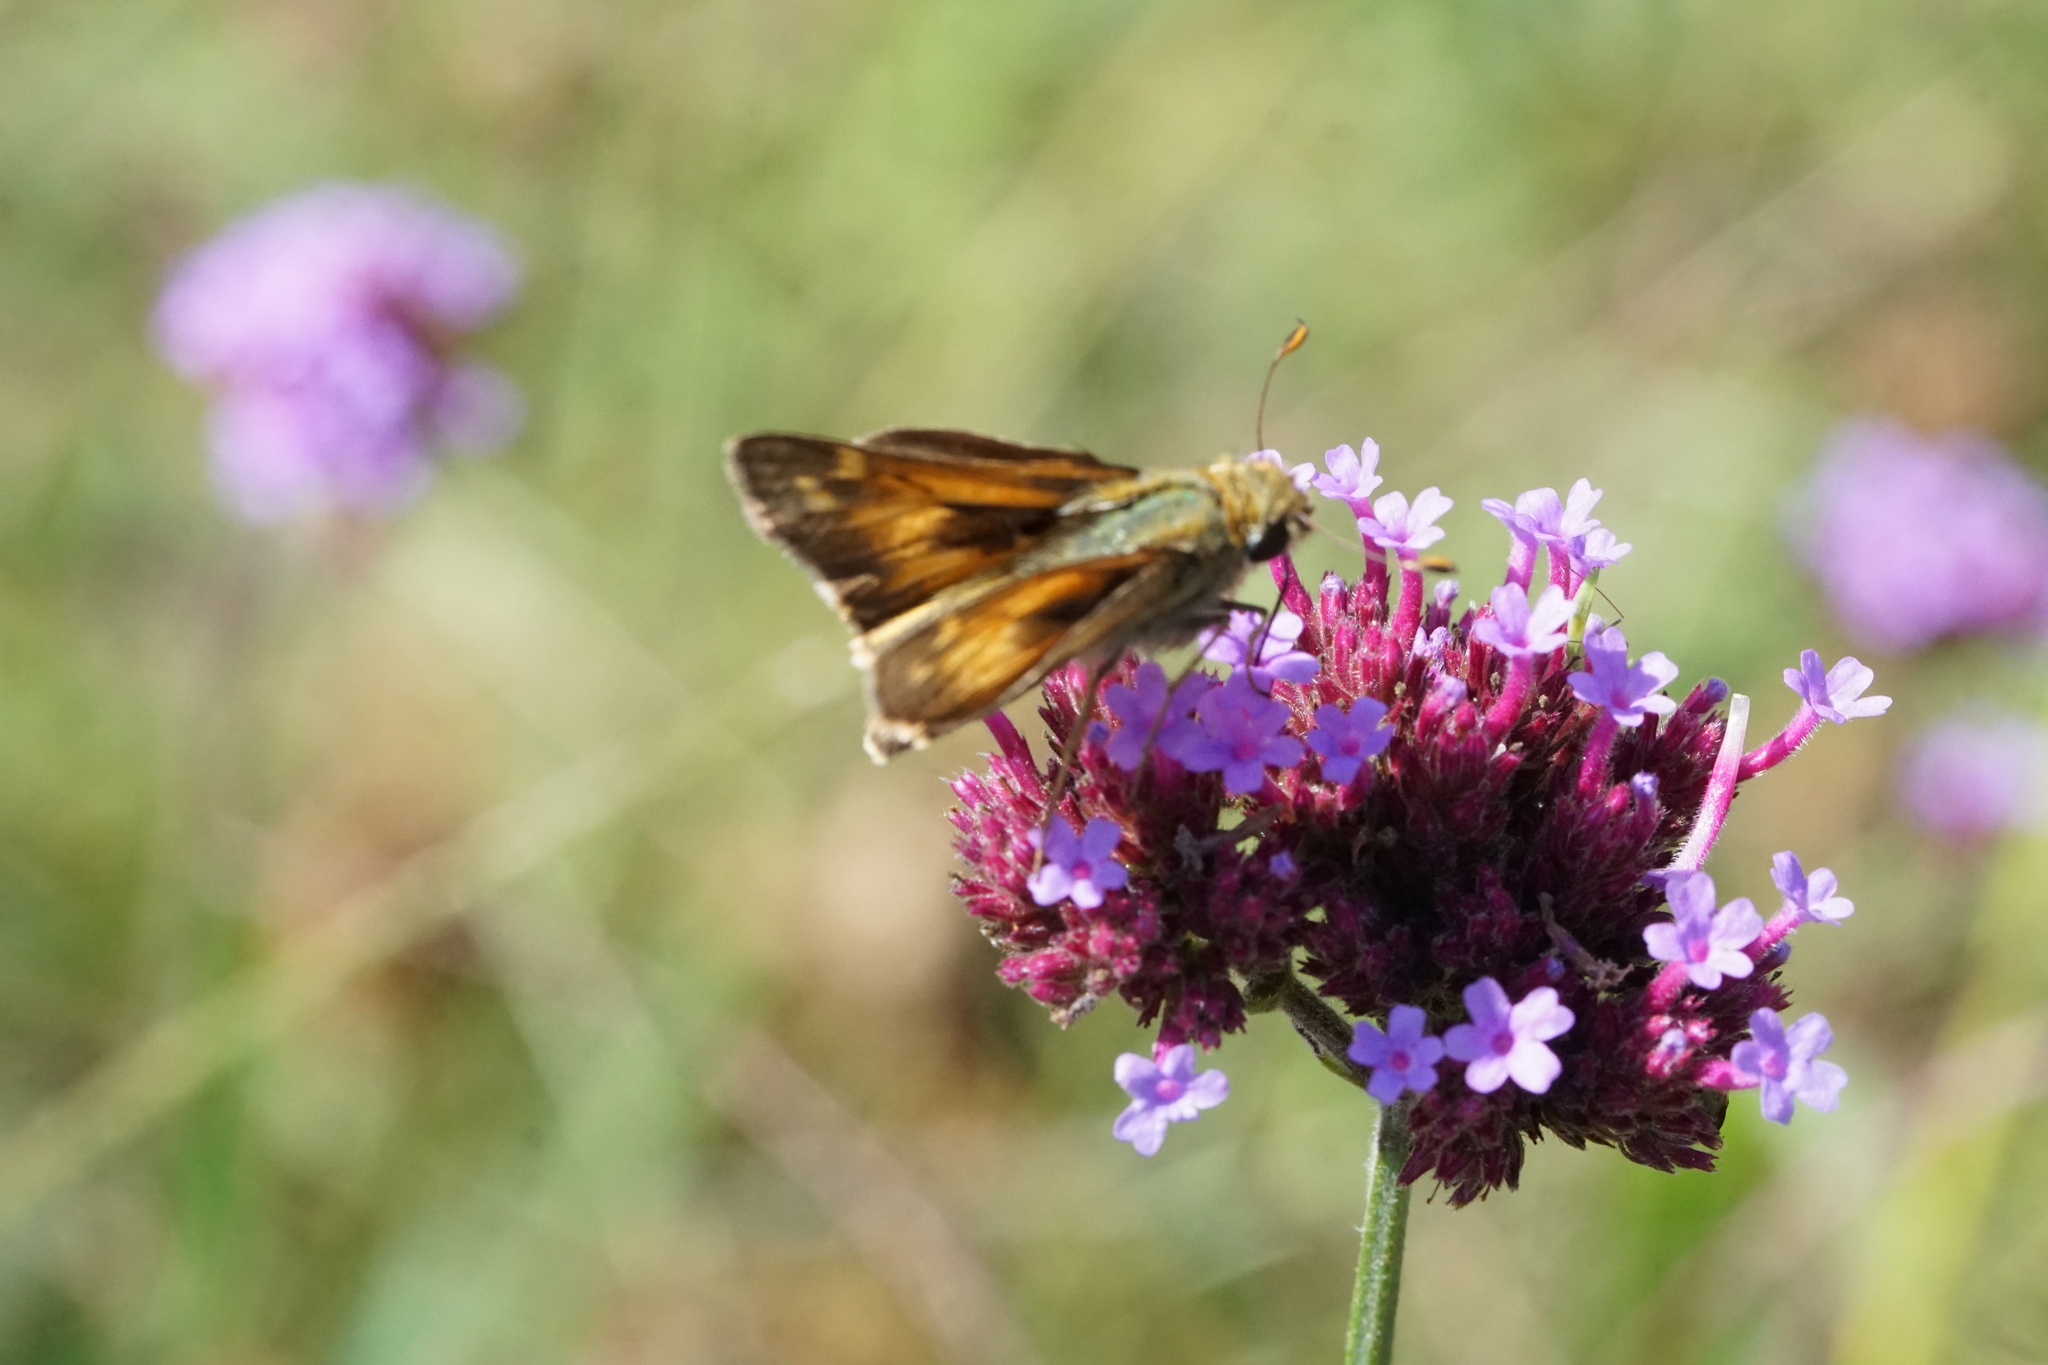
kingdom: Animalia
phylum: Arthropoda
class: Insecta
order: Lepidoptera
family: Hesperiidae
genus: Atalopedes
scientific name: Atalopedes
